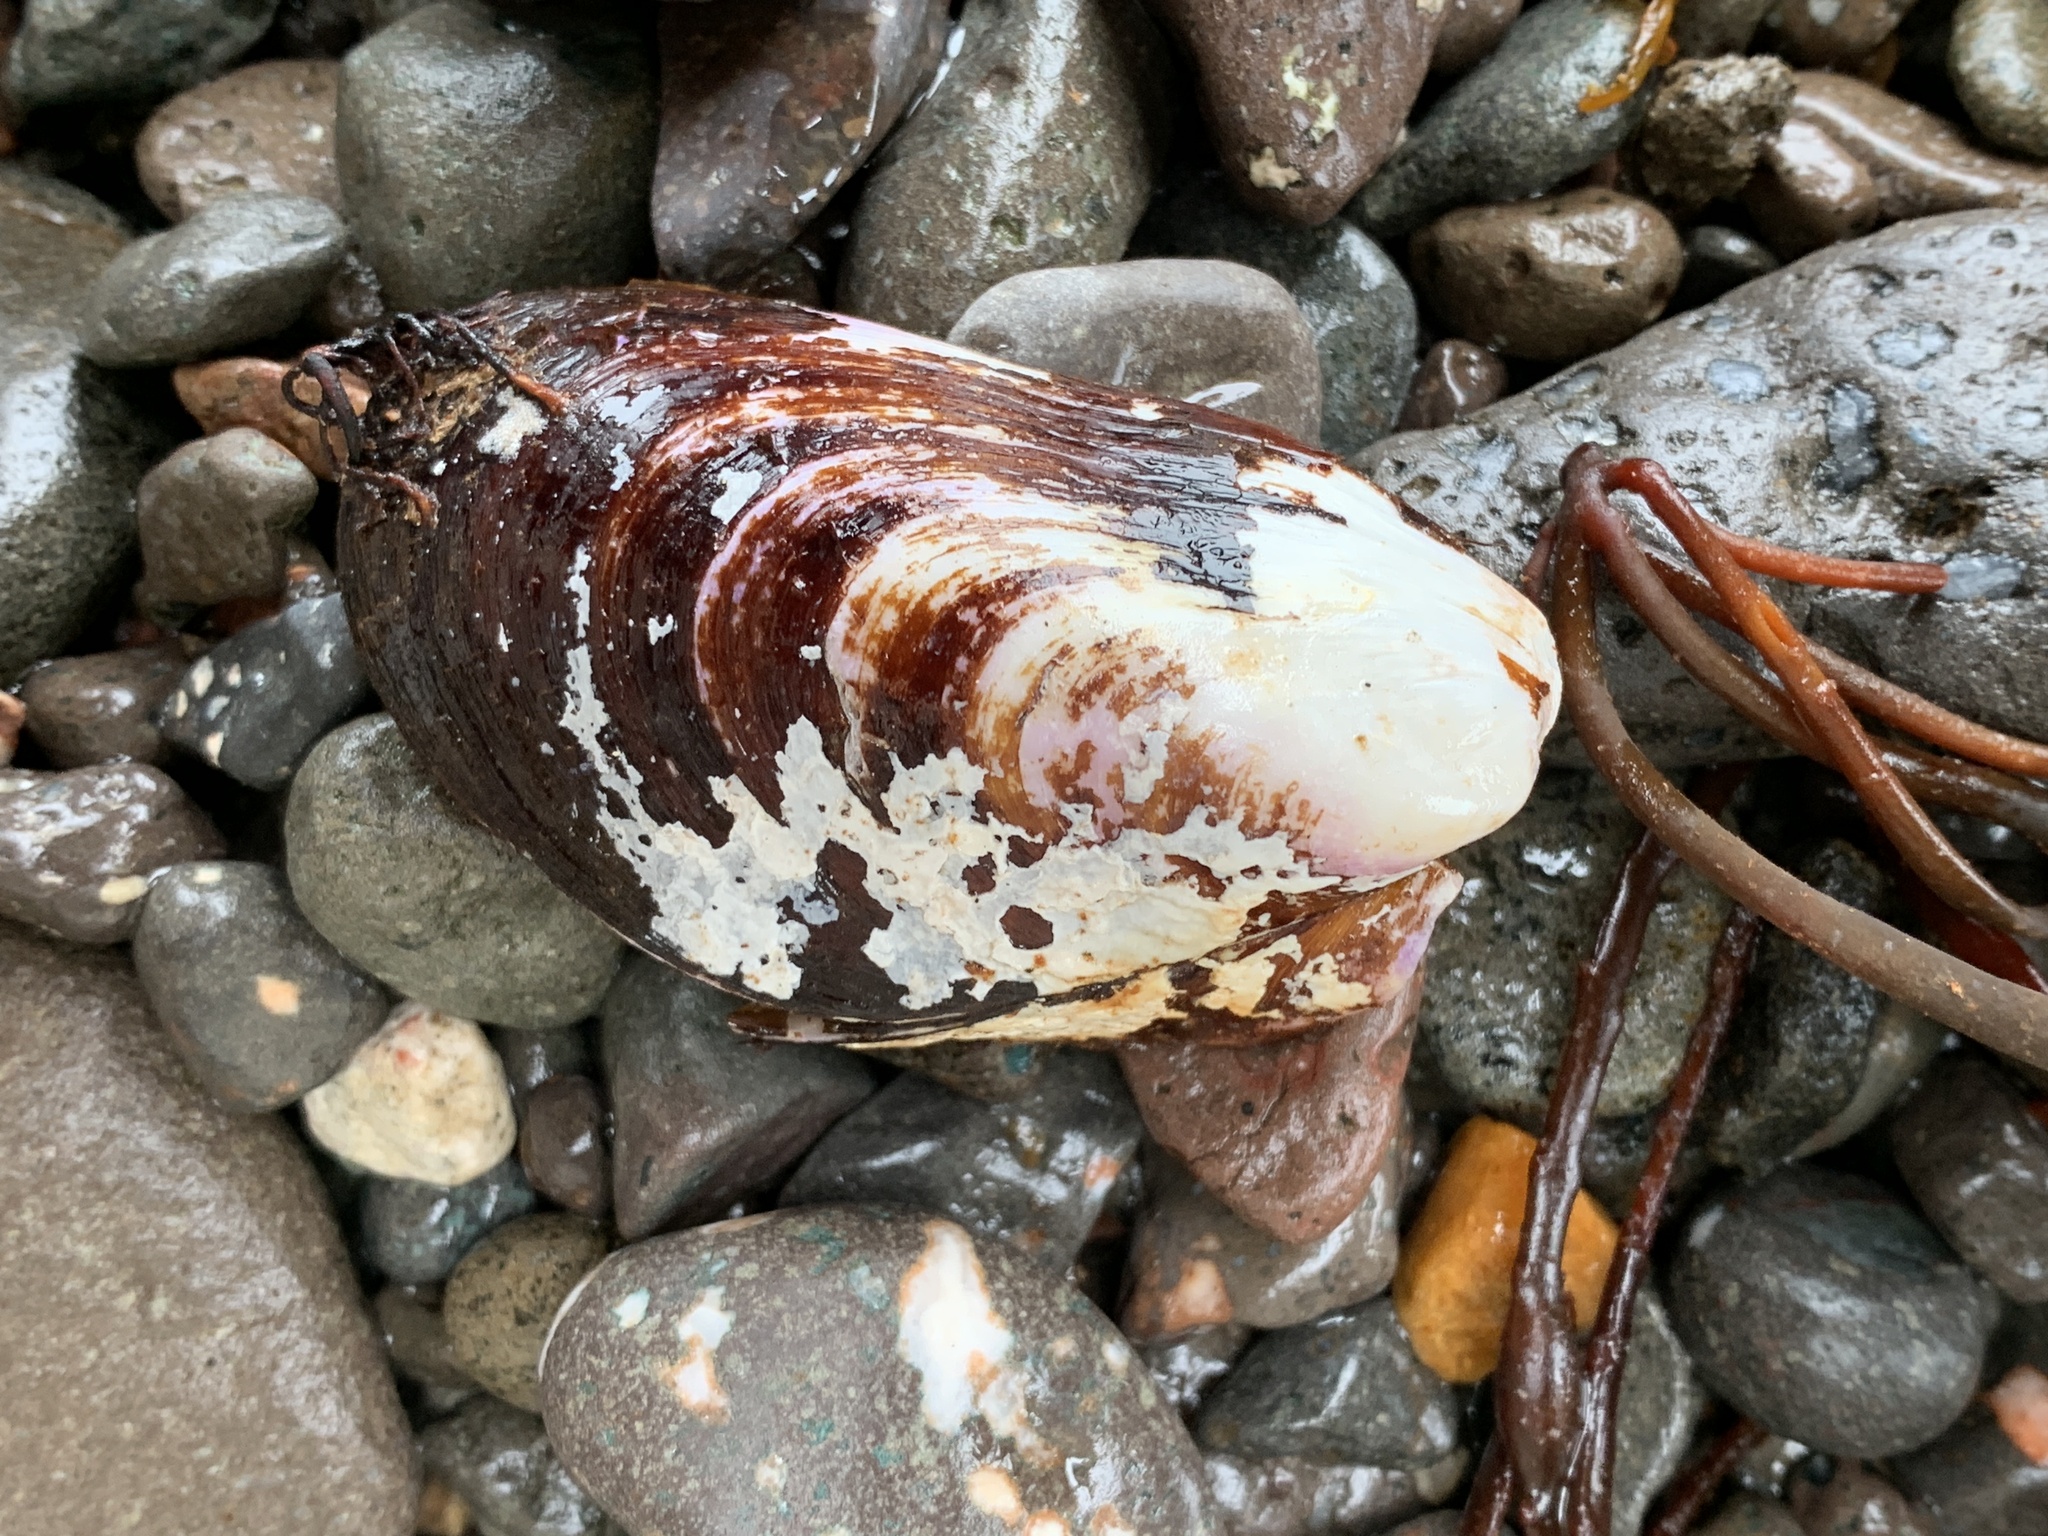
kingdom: Animalia
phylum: Mollusca
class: Bivalvia
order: Mytilida
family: Mytilidae
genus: Modiolus
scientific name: Modiolus modiolus
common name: Horse-mussel
